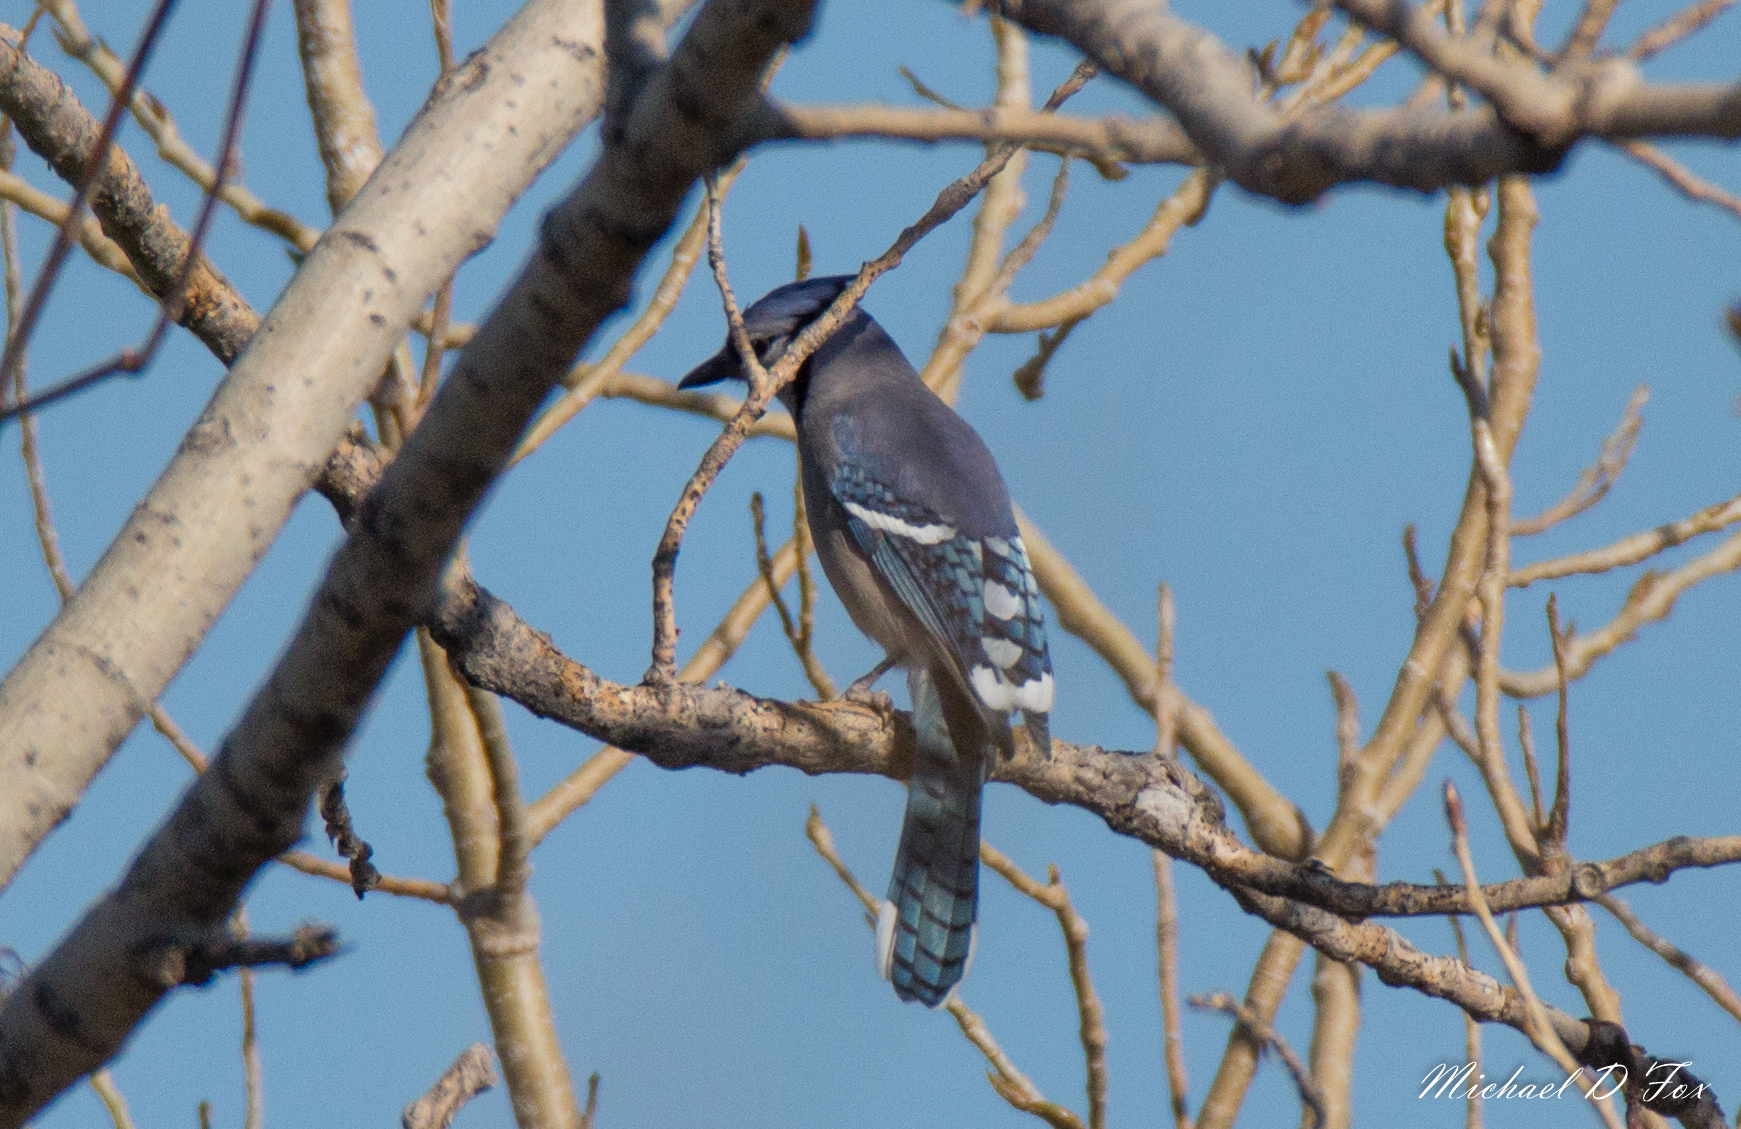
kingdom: Animalia
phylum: Chordata
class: Aves
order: Passeriformes
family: Corvidae
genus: Cyanocitta
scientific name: Cyanocitta cristata
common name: Blue jay
